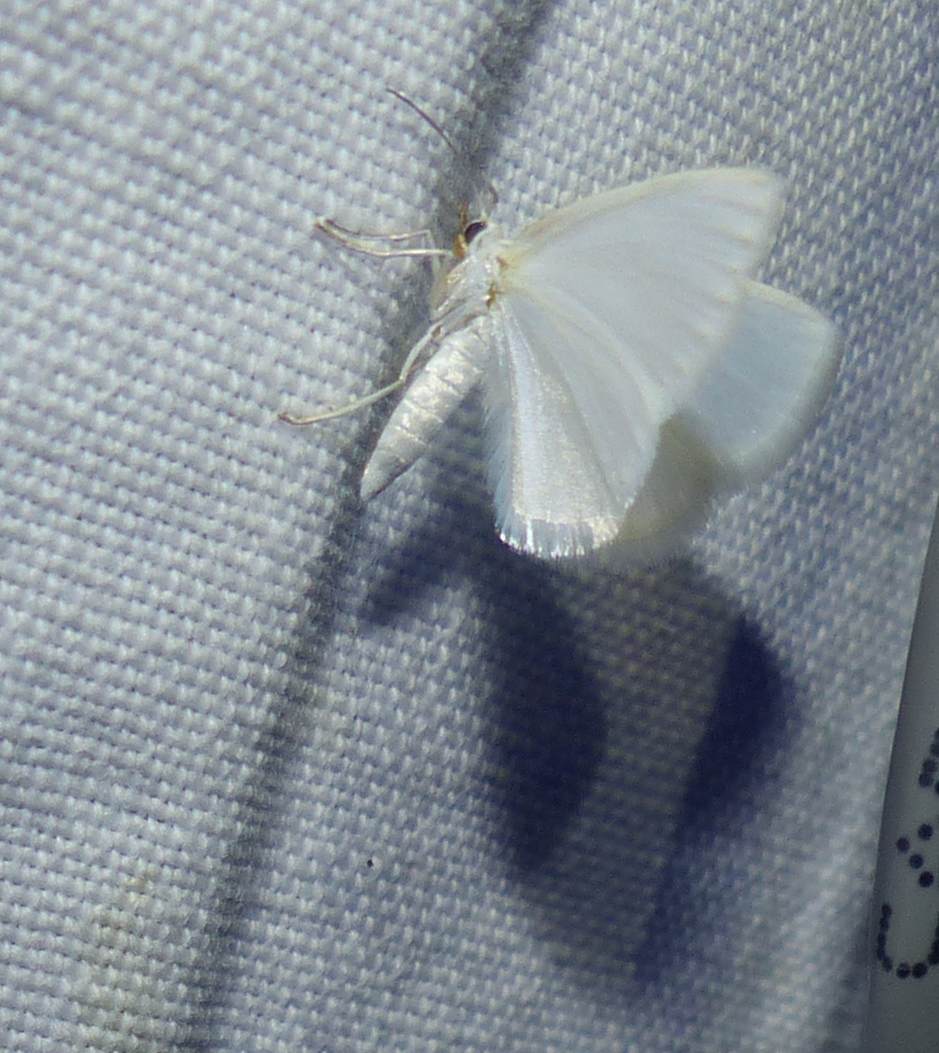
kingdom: Animalia
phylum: Arthropoda
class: Insecta
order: Lepidoptera
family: Geometridae
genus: Lomographa
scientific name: Lomographa vestaliata
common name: White spring moth
